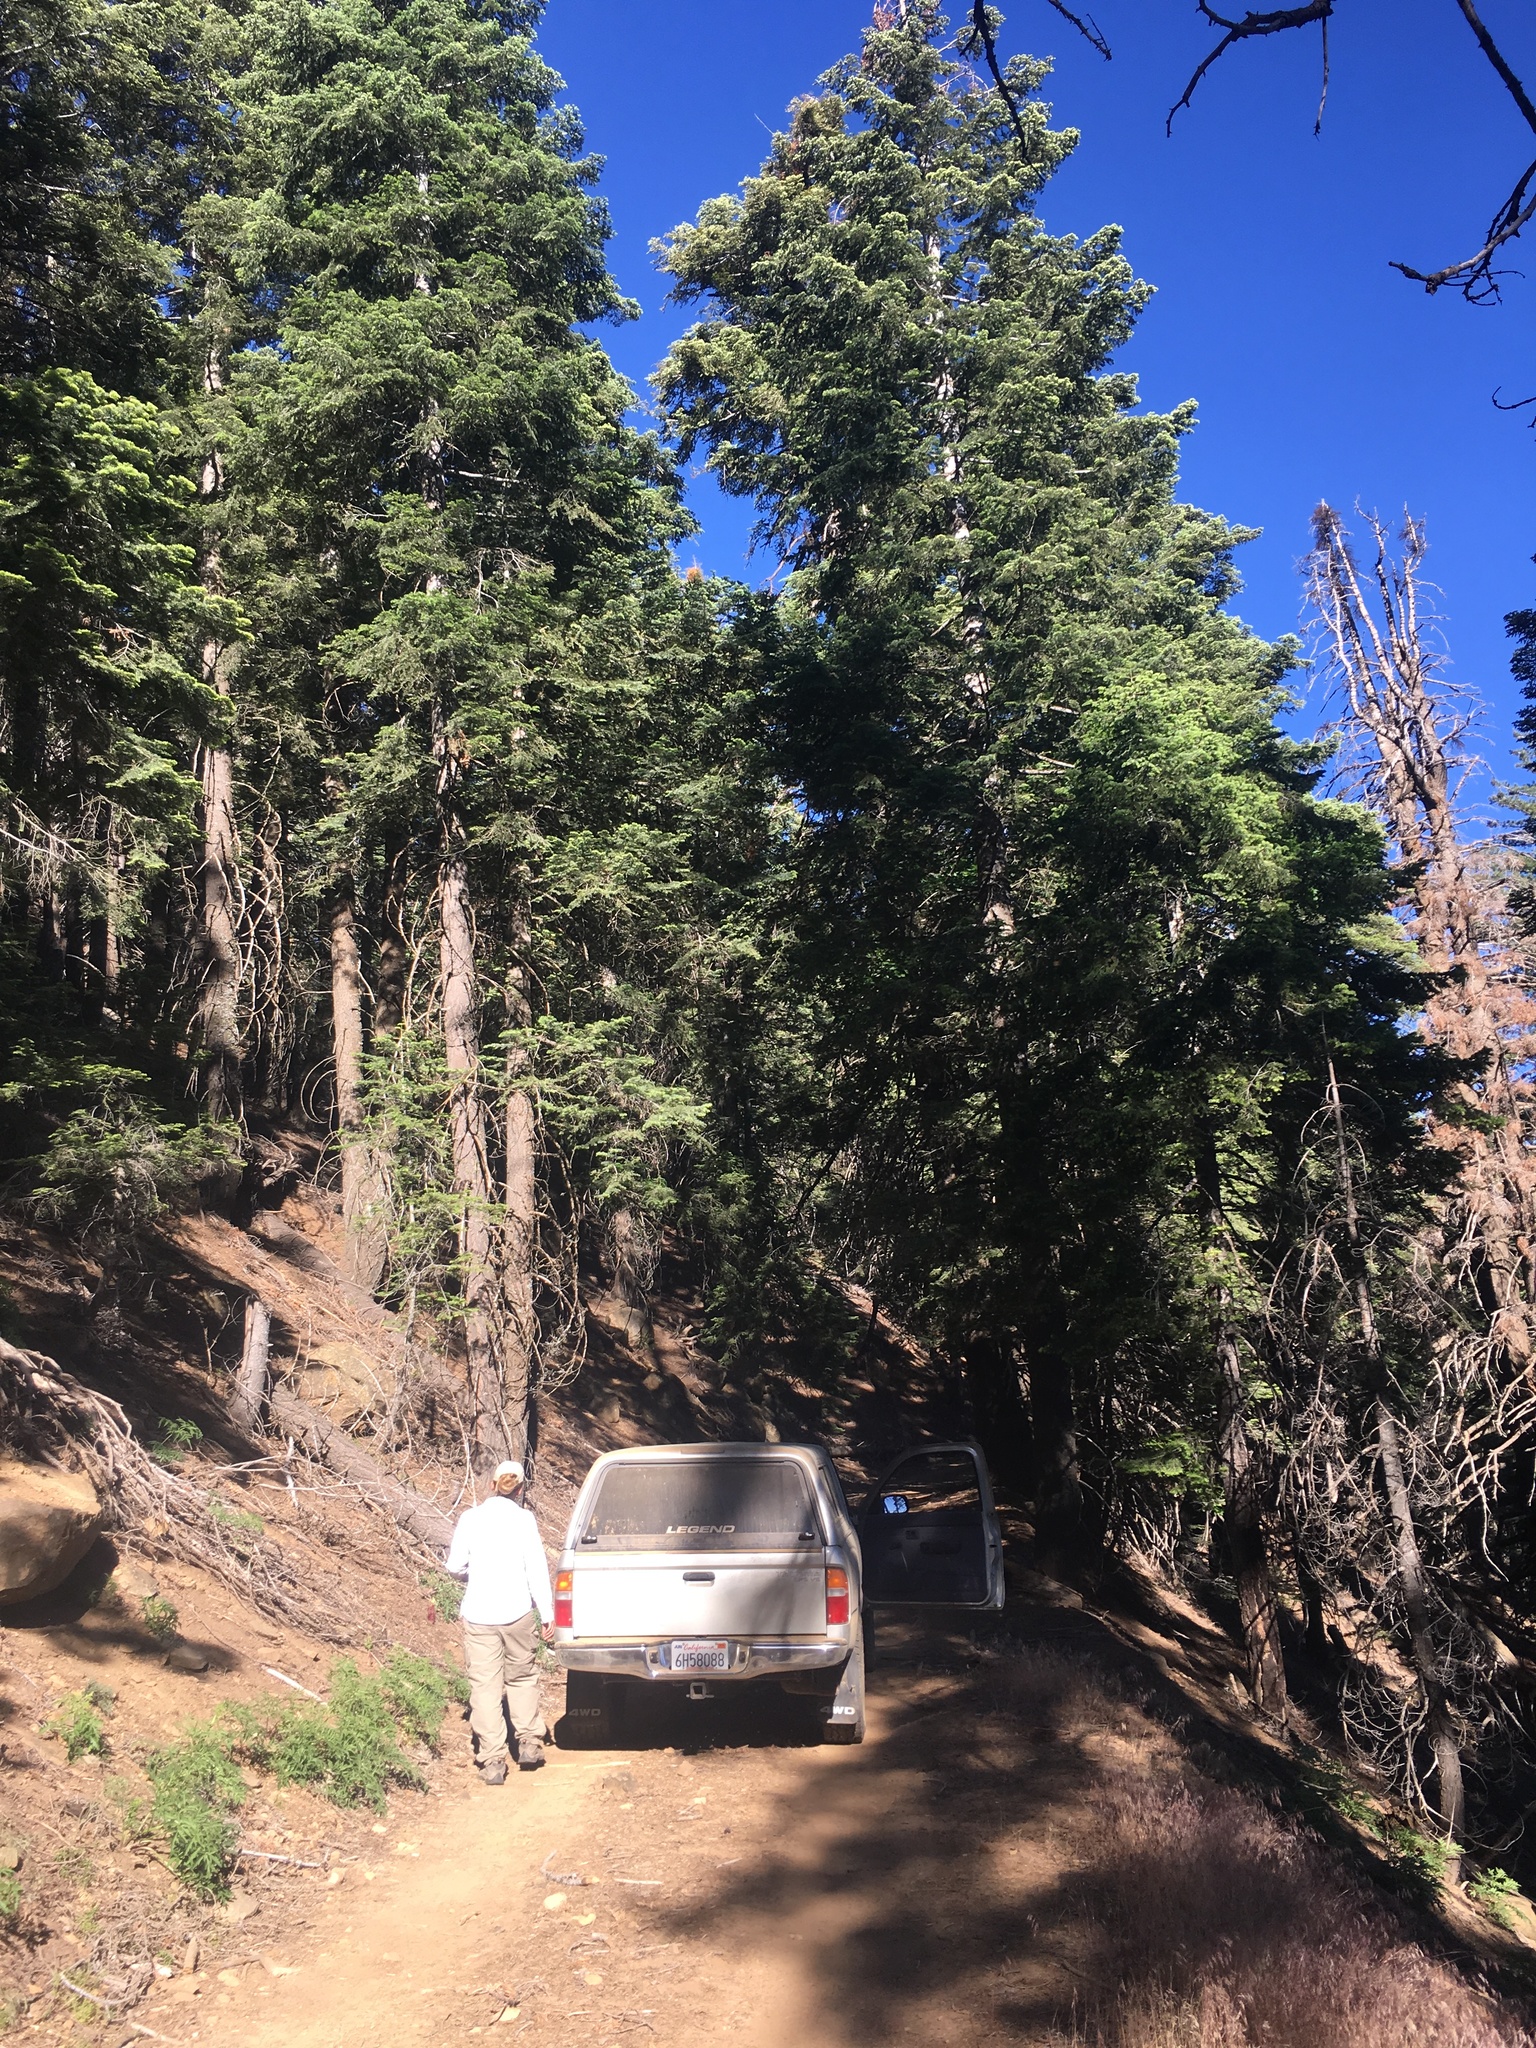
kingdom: Plantae
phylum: Tracheophyta
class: Pinopsida
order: Pinales
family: Pinaceae
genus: Abies
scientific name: Abies concolor
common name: Colorado fir
